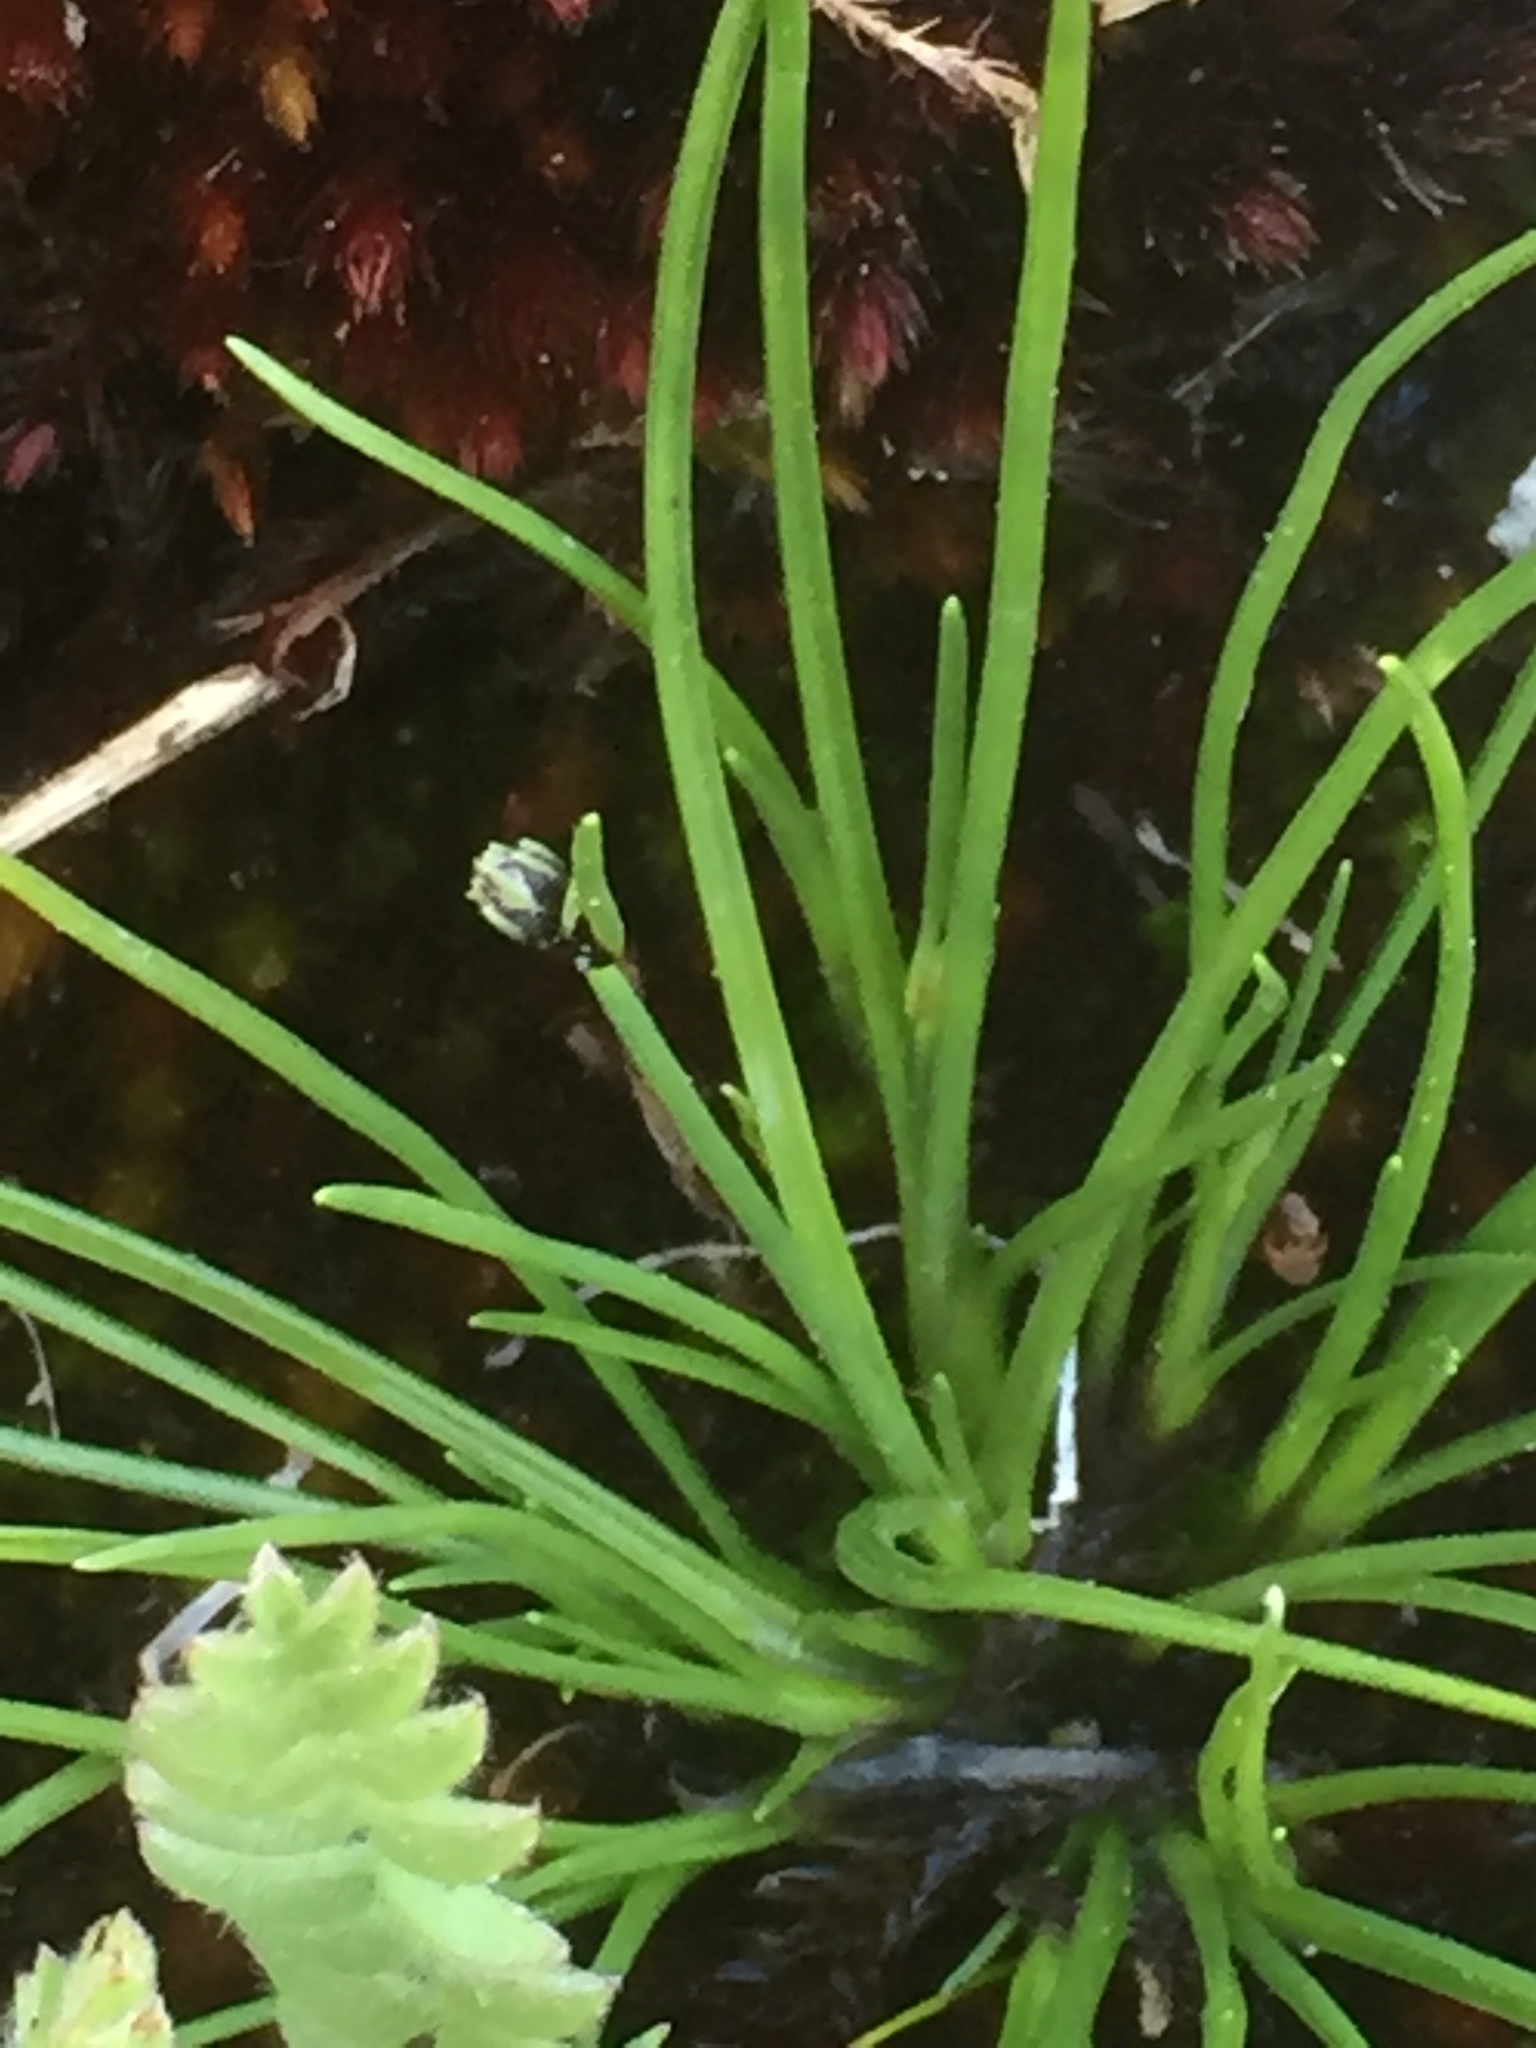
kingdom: Plantae
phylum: Tracheophyta
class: Liliopsida
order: Poales
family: Cyperaceae
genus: Isolepis
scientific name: Isolepis setacea
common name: Bristle club-rush
